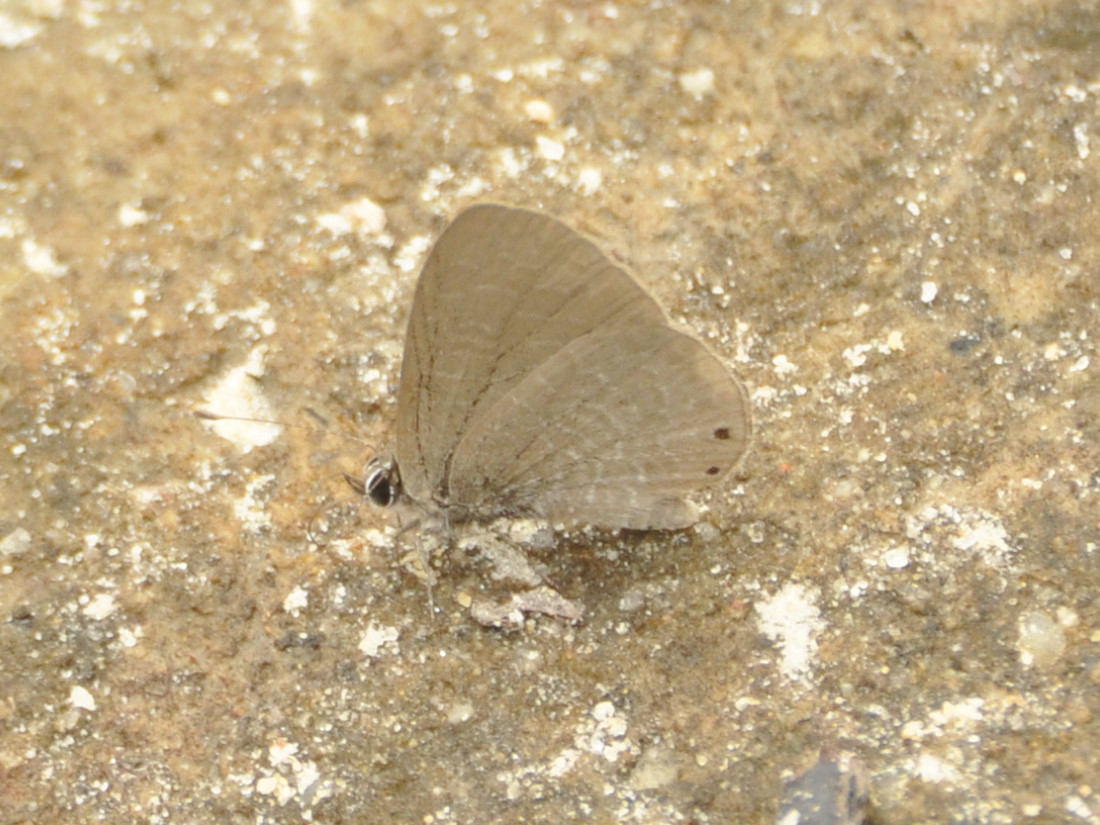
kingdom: Animalia
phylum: Arthropoda
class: Insecta
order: Lepidoptera
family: Lycaenidae
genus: Pseudonacaduba
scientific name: Pseudonacaduba sichela
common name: African line blue
